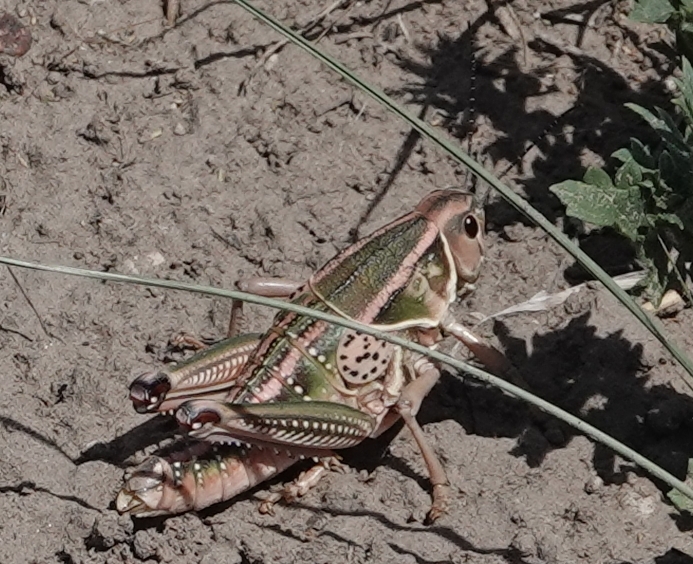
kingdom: Animalia
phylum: Arthropoda
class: Insecta
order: Orthoptera
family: Romaleidae
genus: Brachystola
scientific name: Brachystola magna
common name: Plains lubber grasshopper
